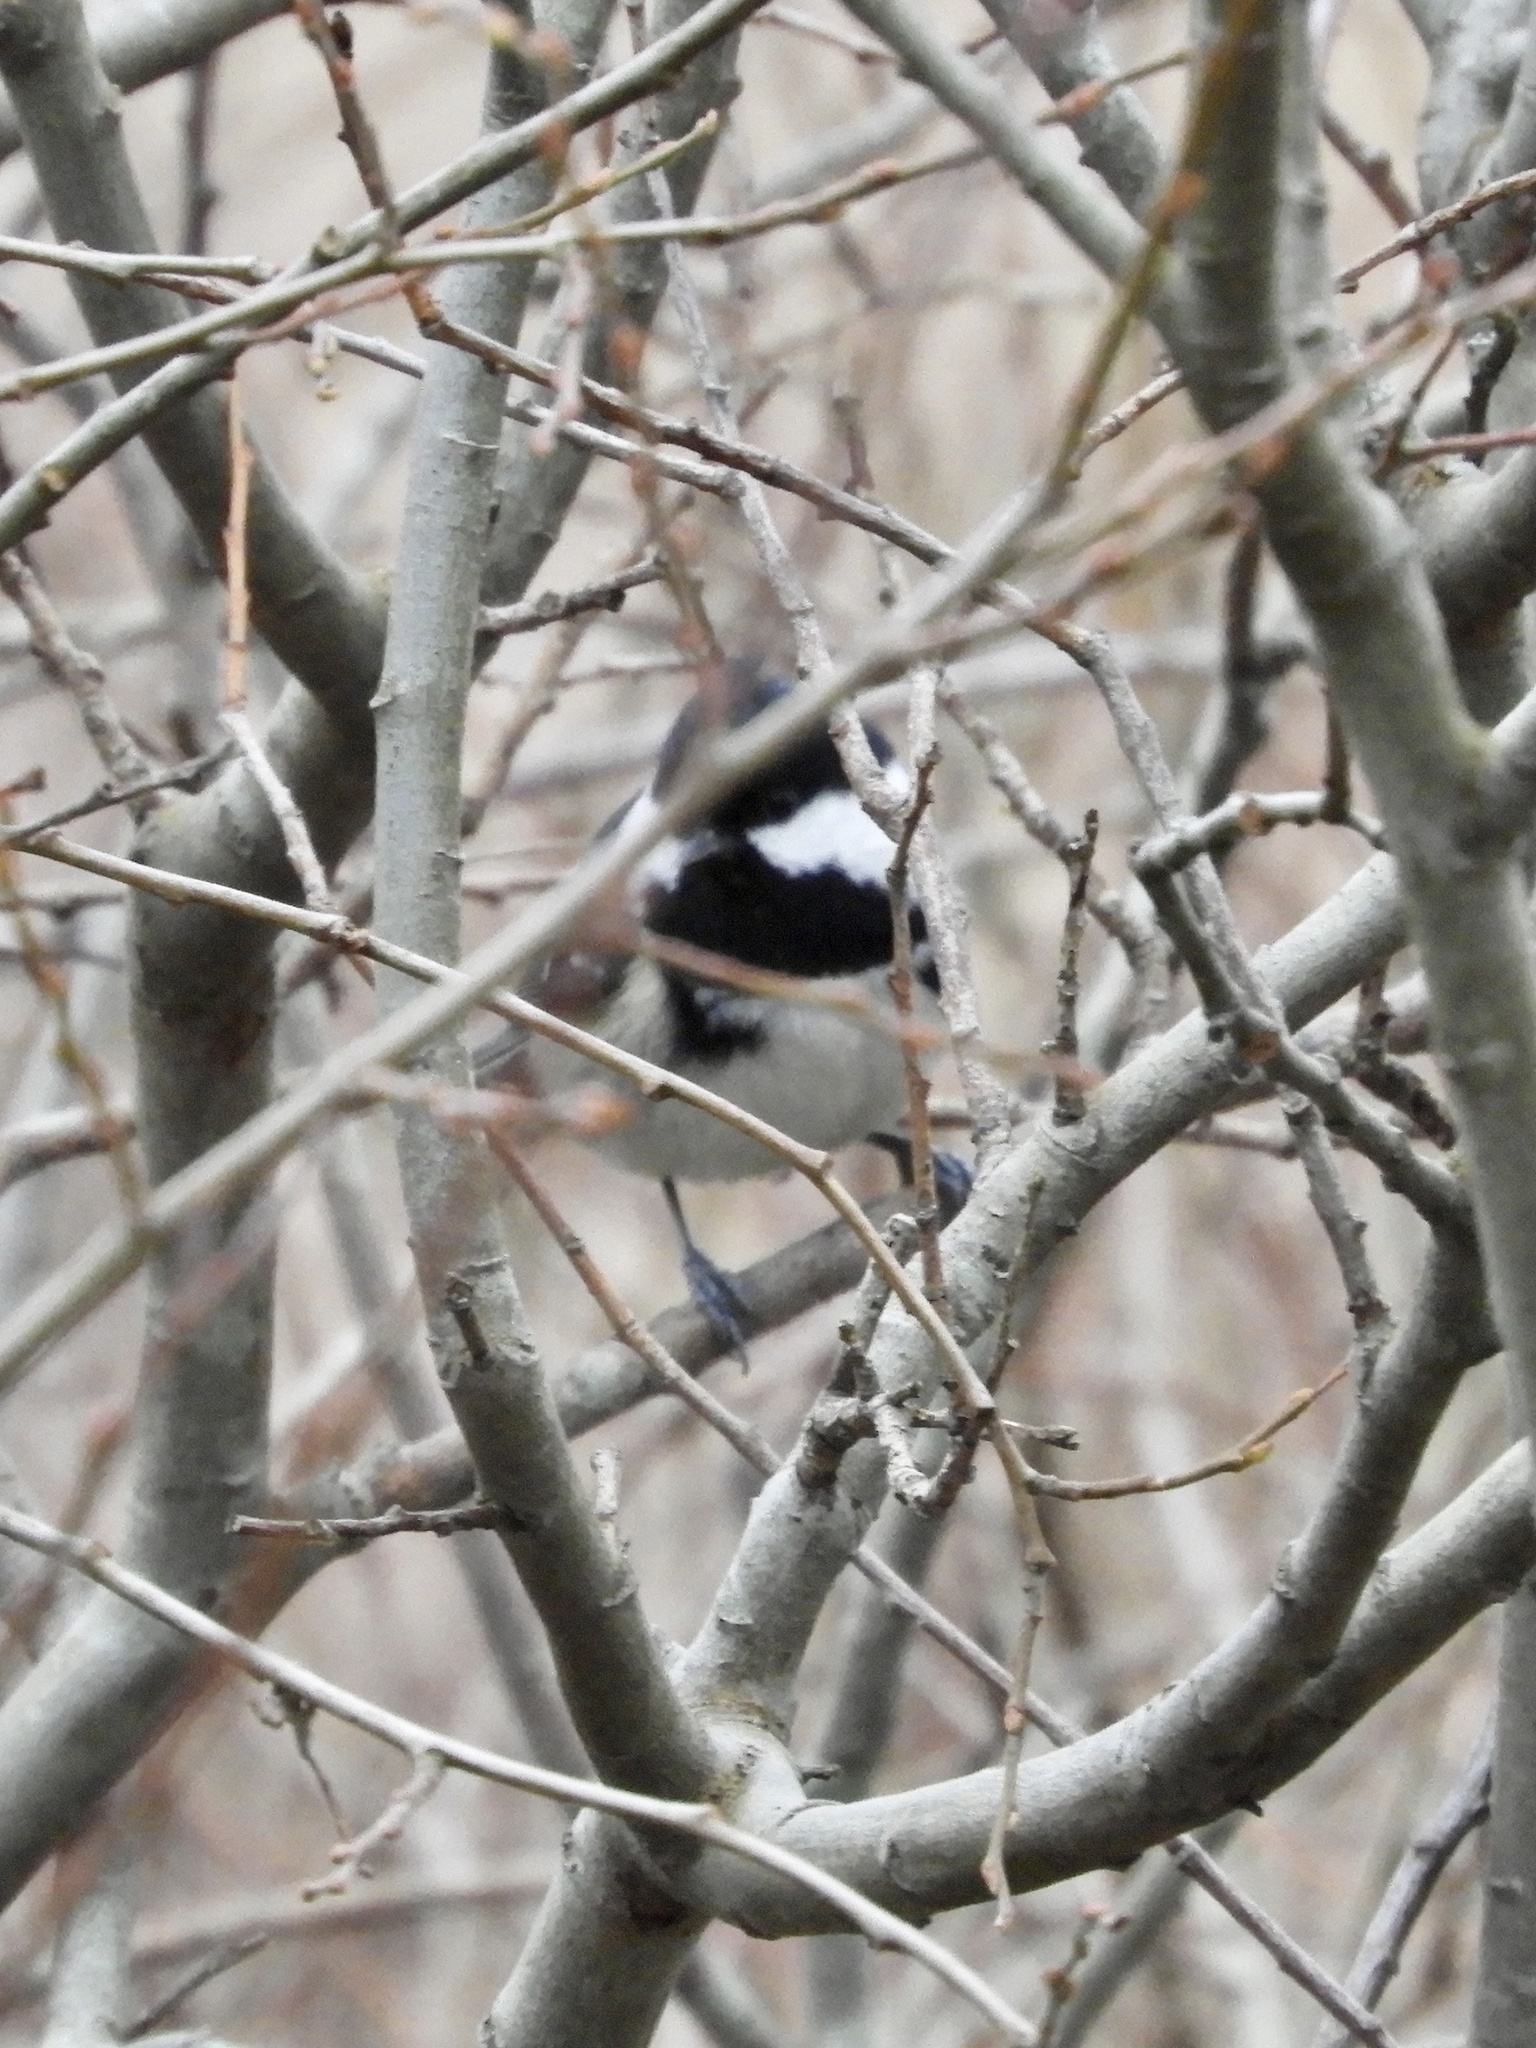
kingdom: Animalia
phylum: Chordata
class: Aves
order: Passeriformes
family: Paridae
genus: Periparus
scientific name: Periparus ater
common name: Coal tit
